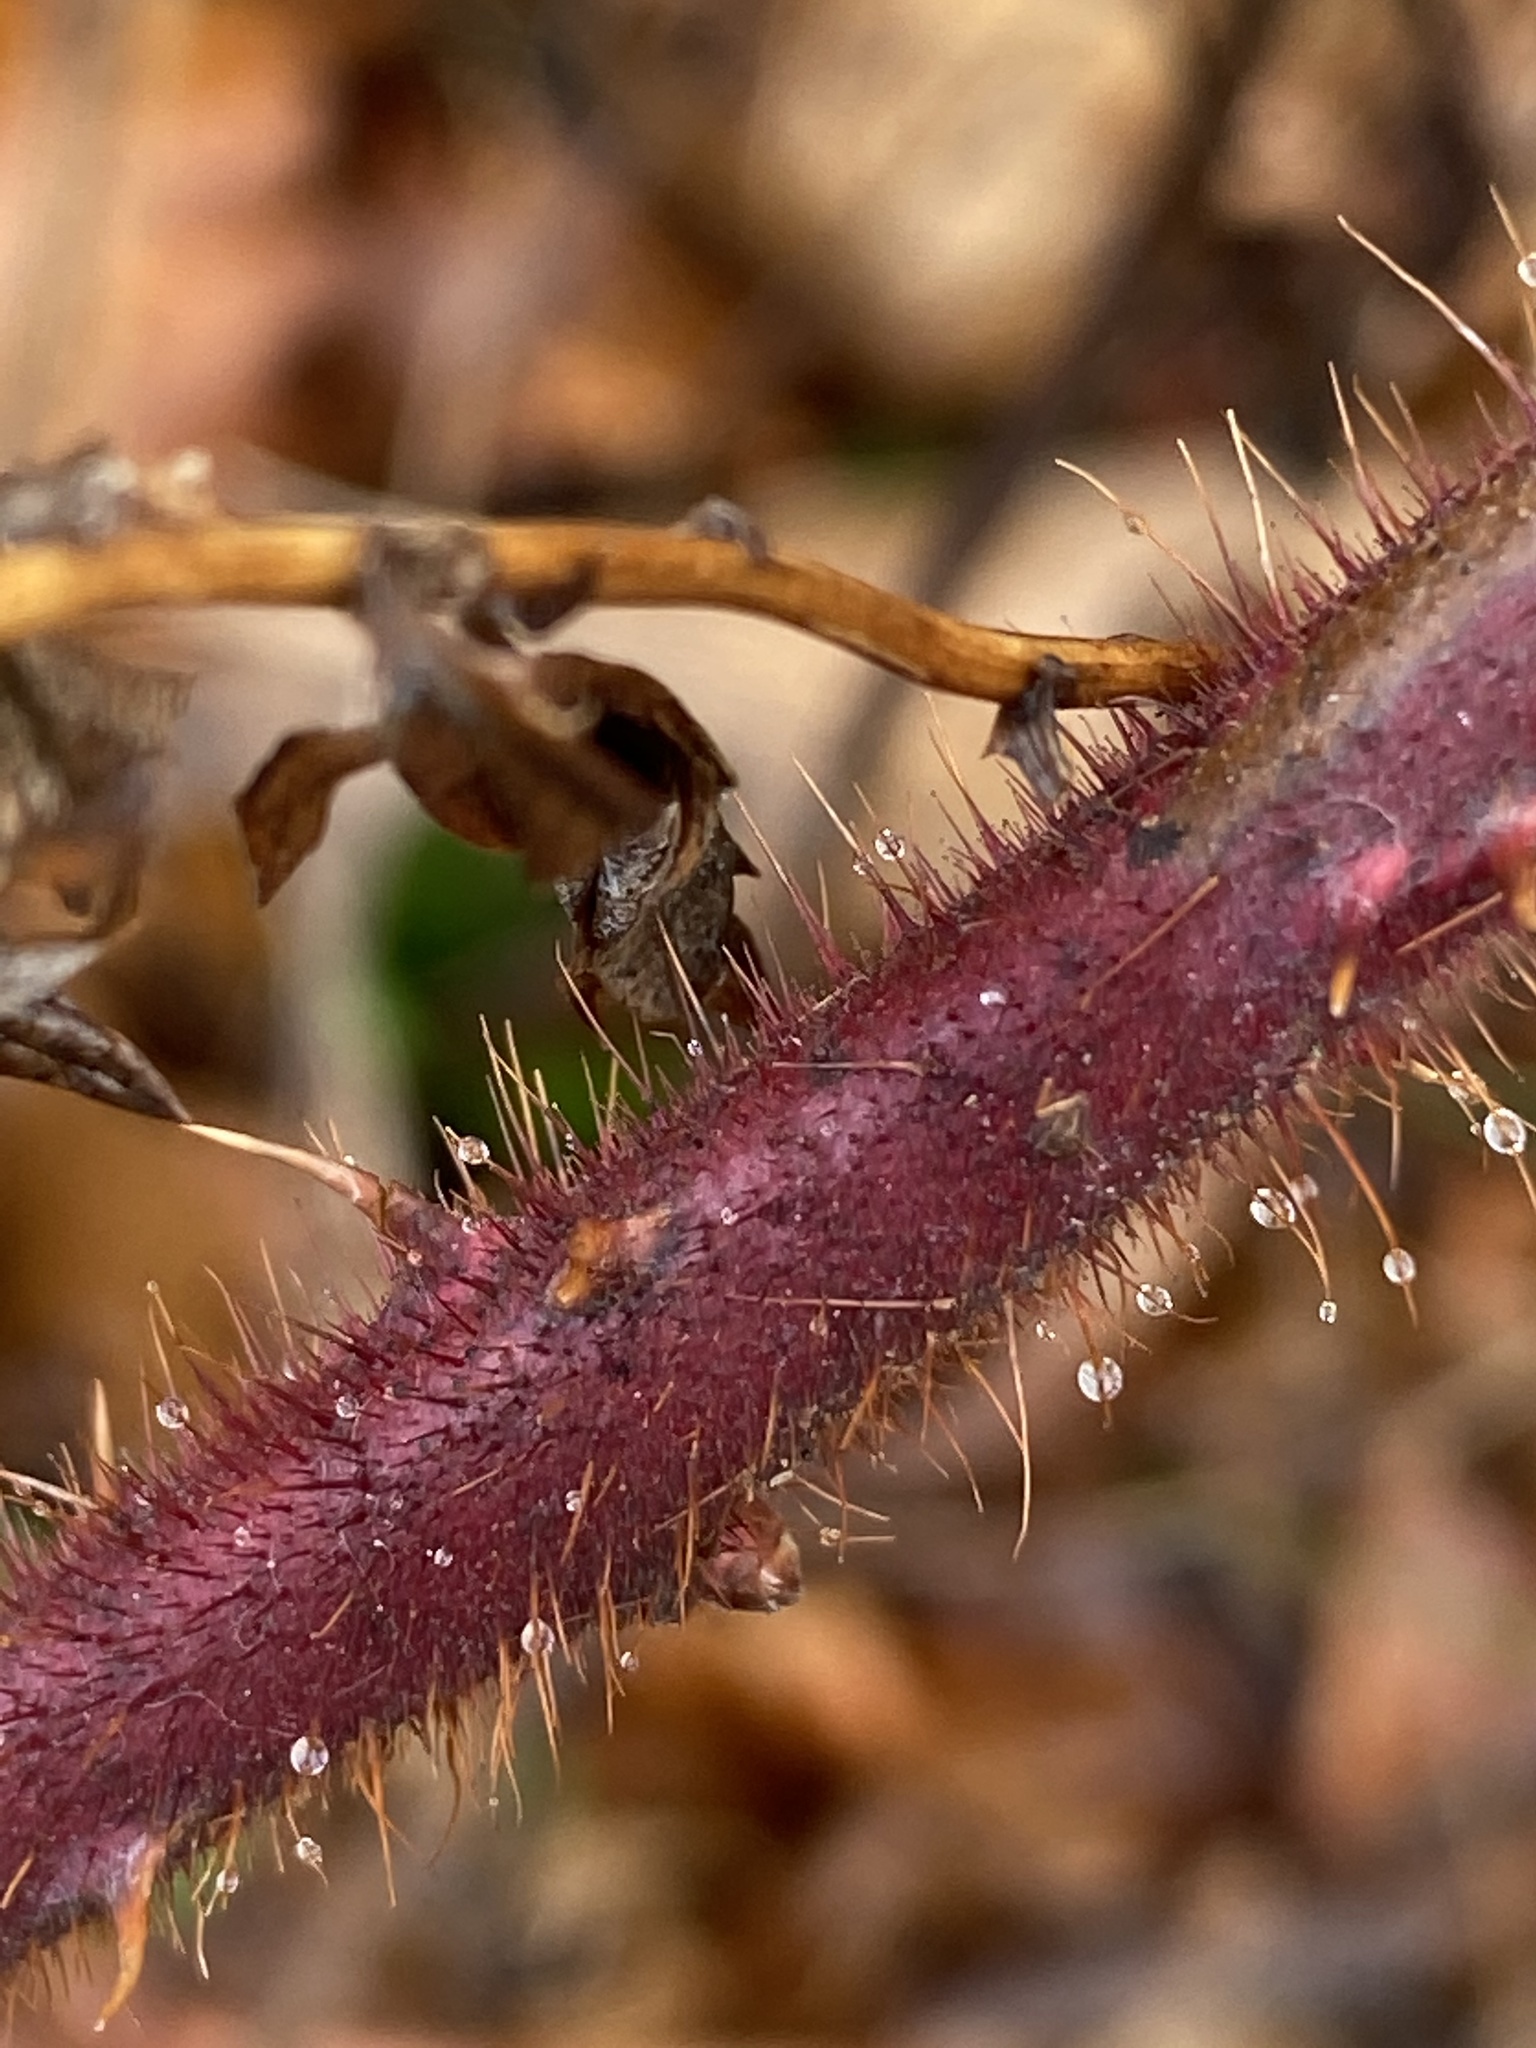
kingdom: Plantae
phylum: Tracheophyta
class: Magnoliopsida
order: Rosales
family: Rosaceae
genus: Rubus
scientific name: Rubus phoenicolasius
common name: Japanese wineberry
